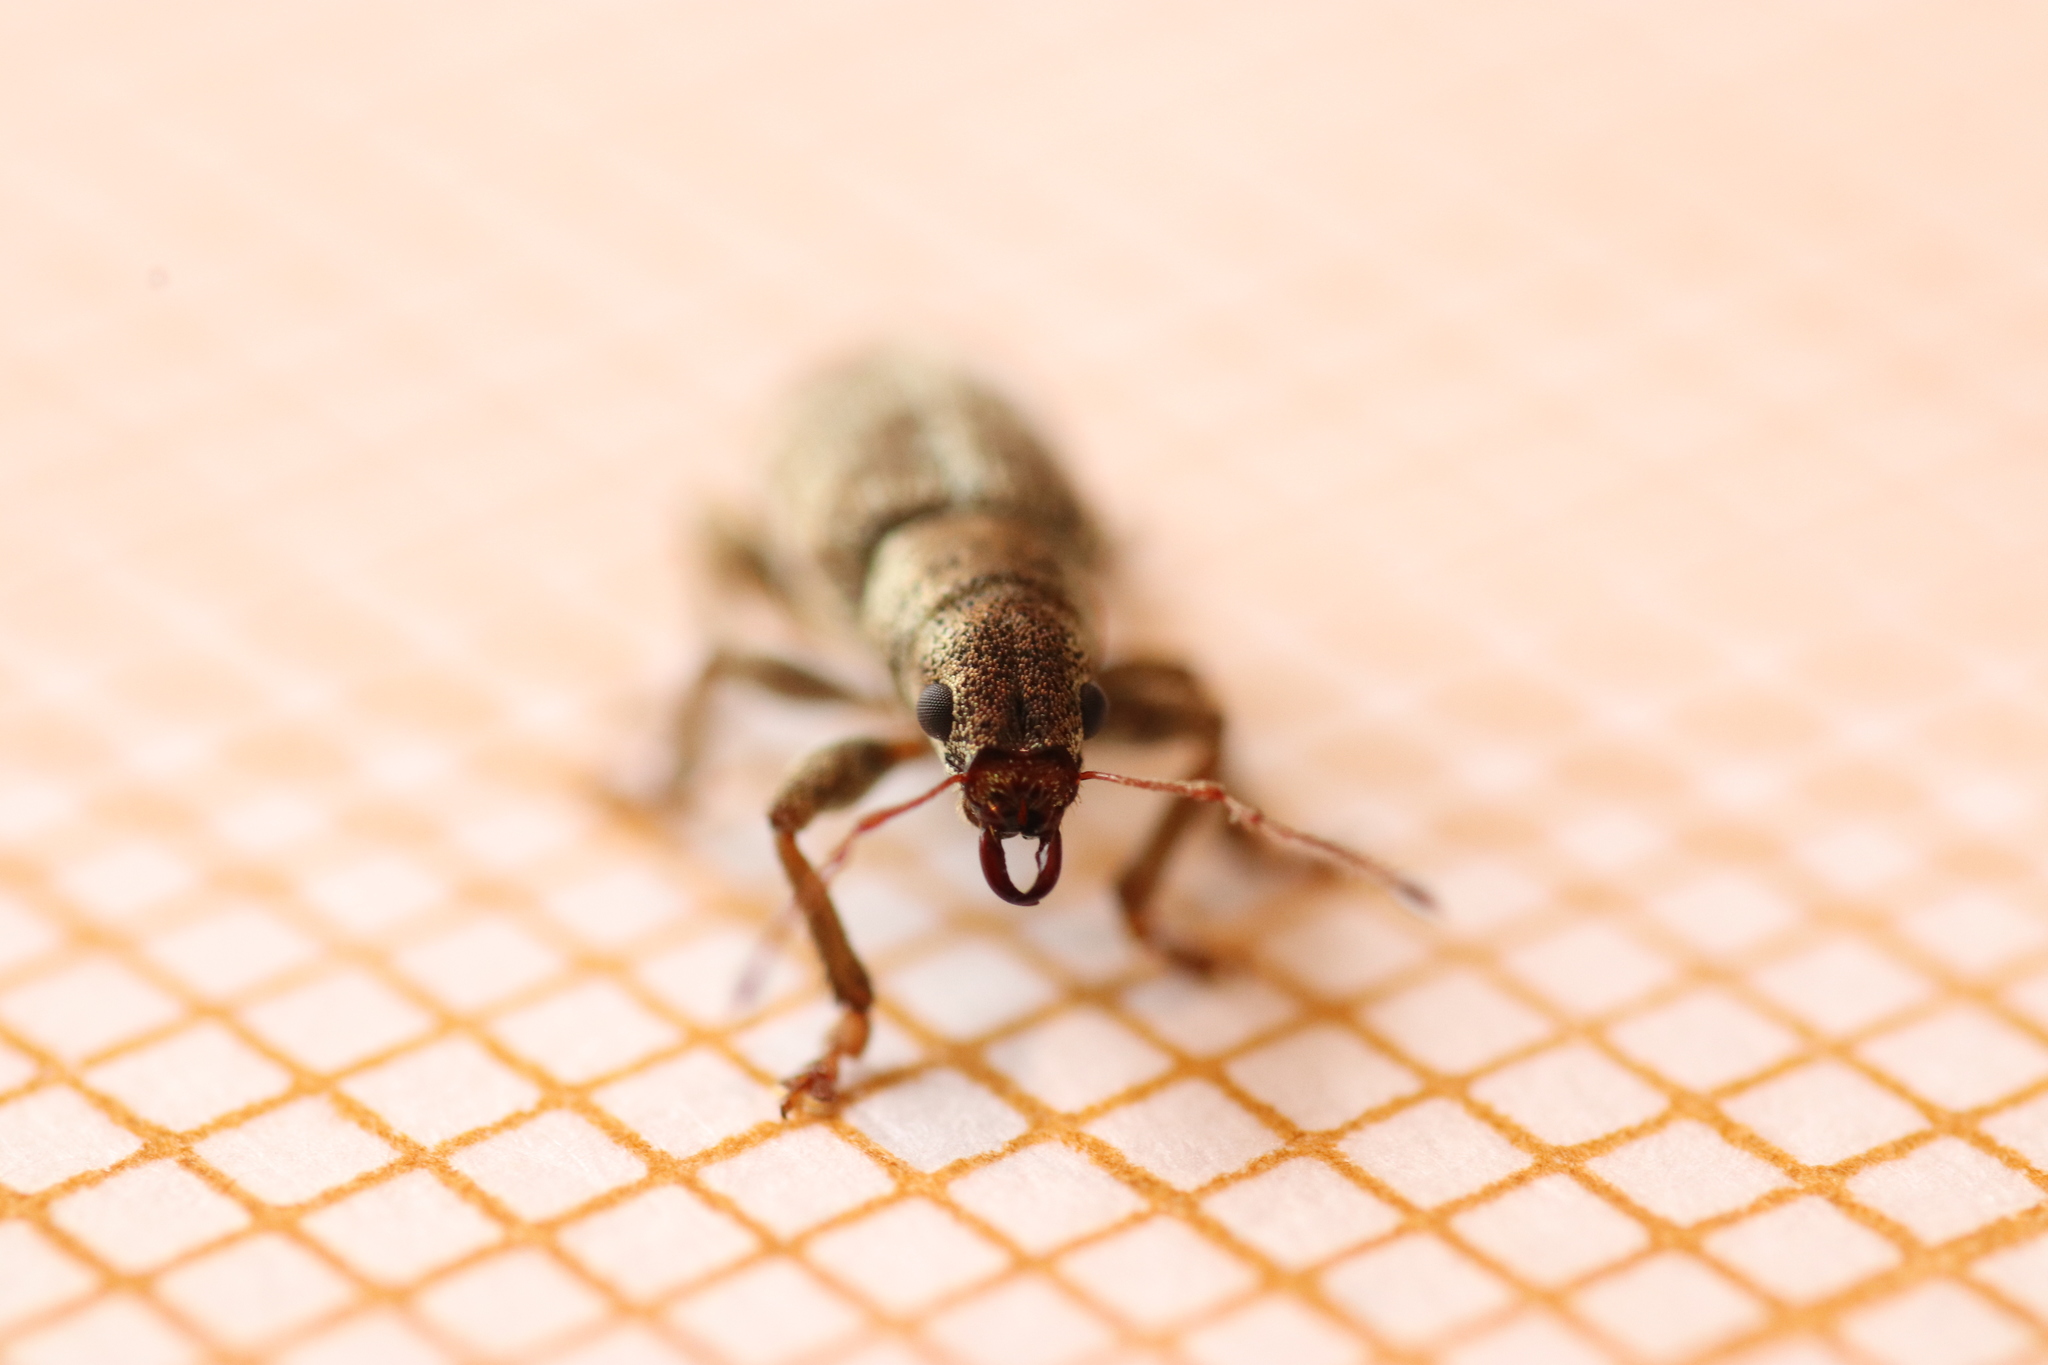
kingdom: Animalia
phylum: Arthropoda
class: Insecta
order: Coleoptera
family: Curculionidae
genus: Pachyrhinus
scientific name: Pachyrhinus squamosus
